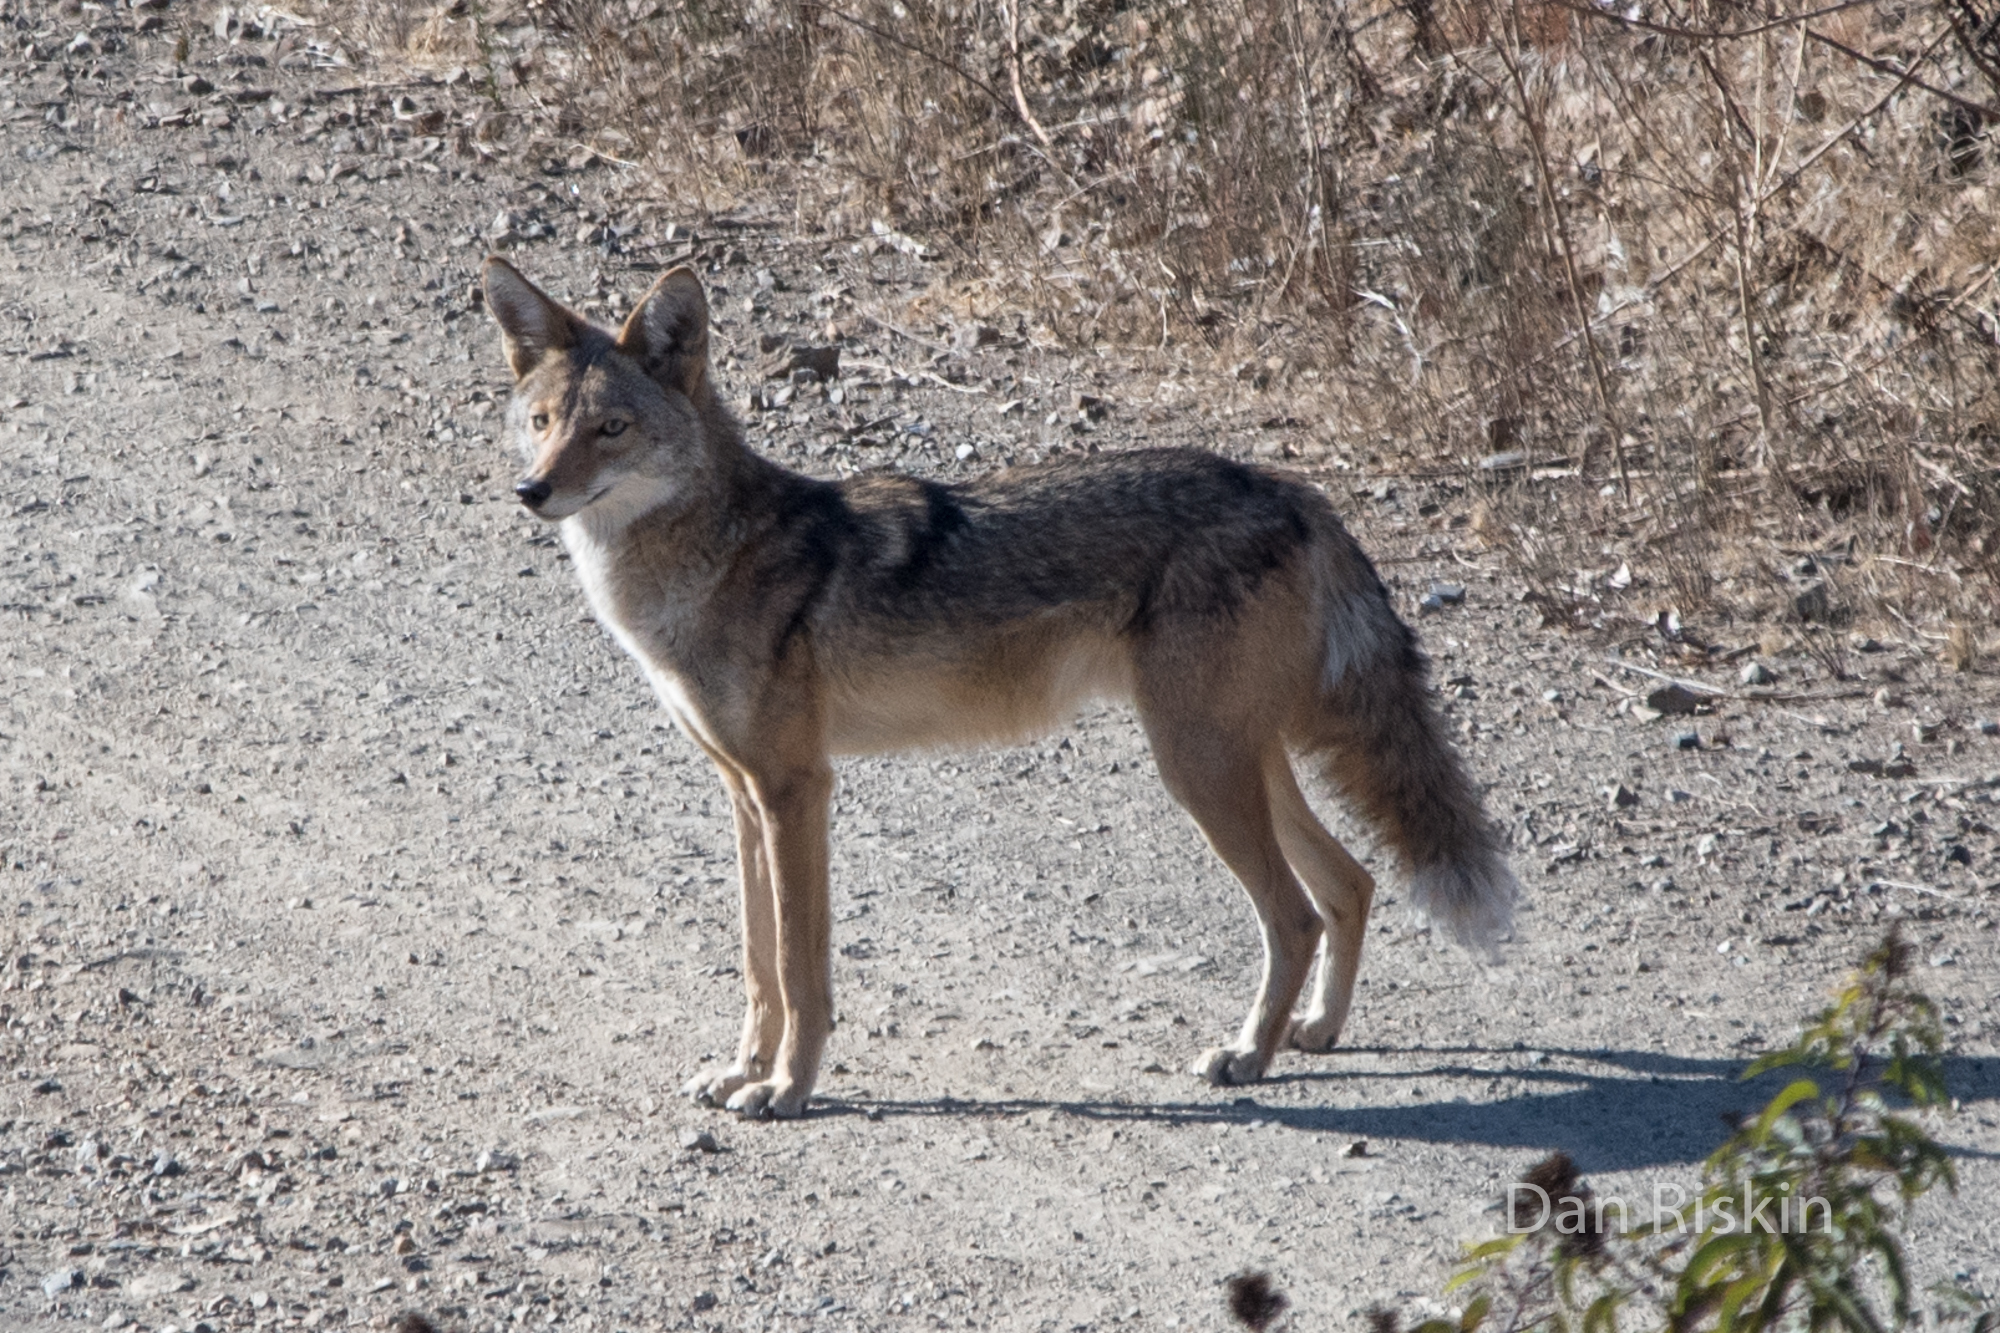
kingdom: Animalia
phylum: Chordata
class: Mammalia
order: Carnivora
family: Canidae
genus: Canis
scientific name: Canis latrans
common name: Coyote
